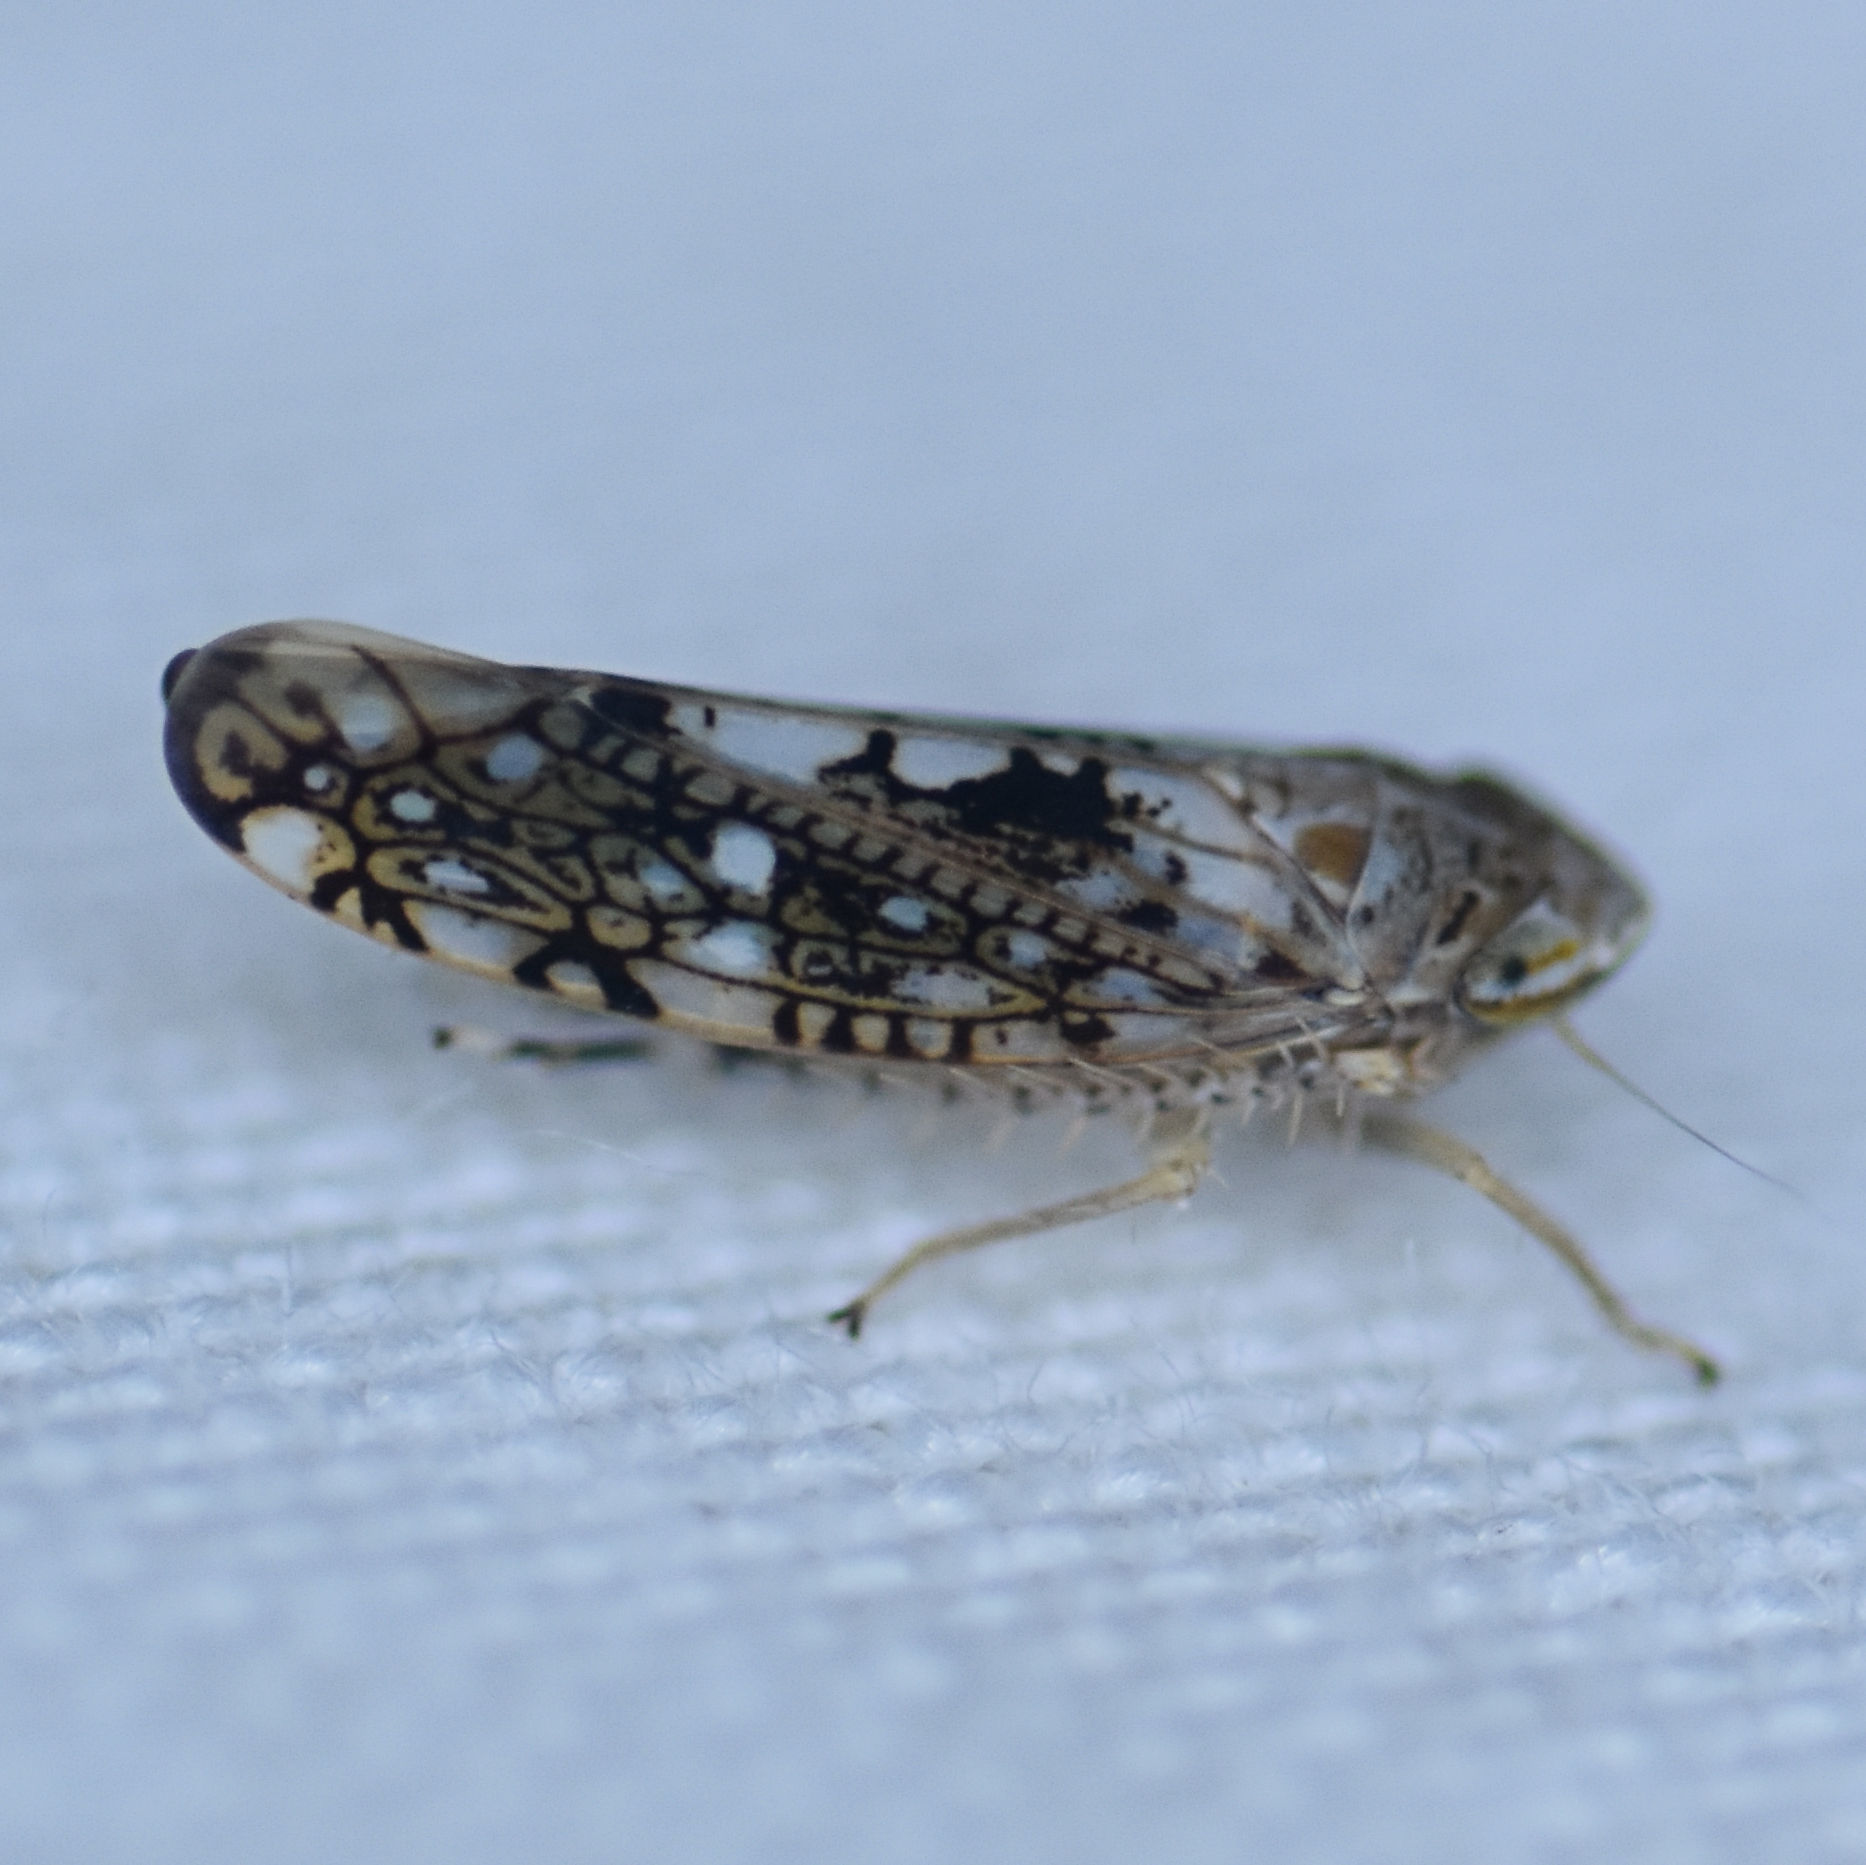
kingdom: Animalia
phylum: Arthropoda
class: Insecta
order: Hemiptera
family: Cicadellidae
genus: Prescottia
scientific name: Prescottia lobata
